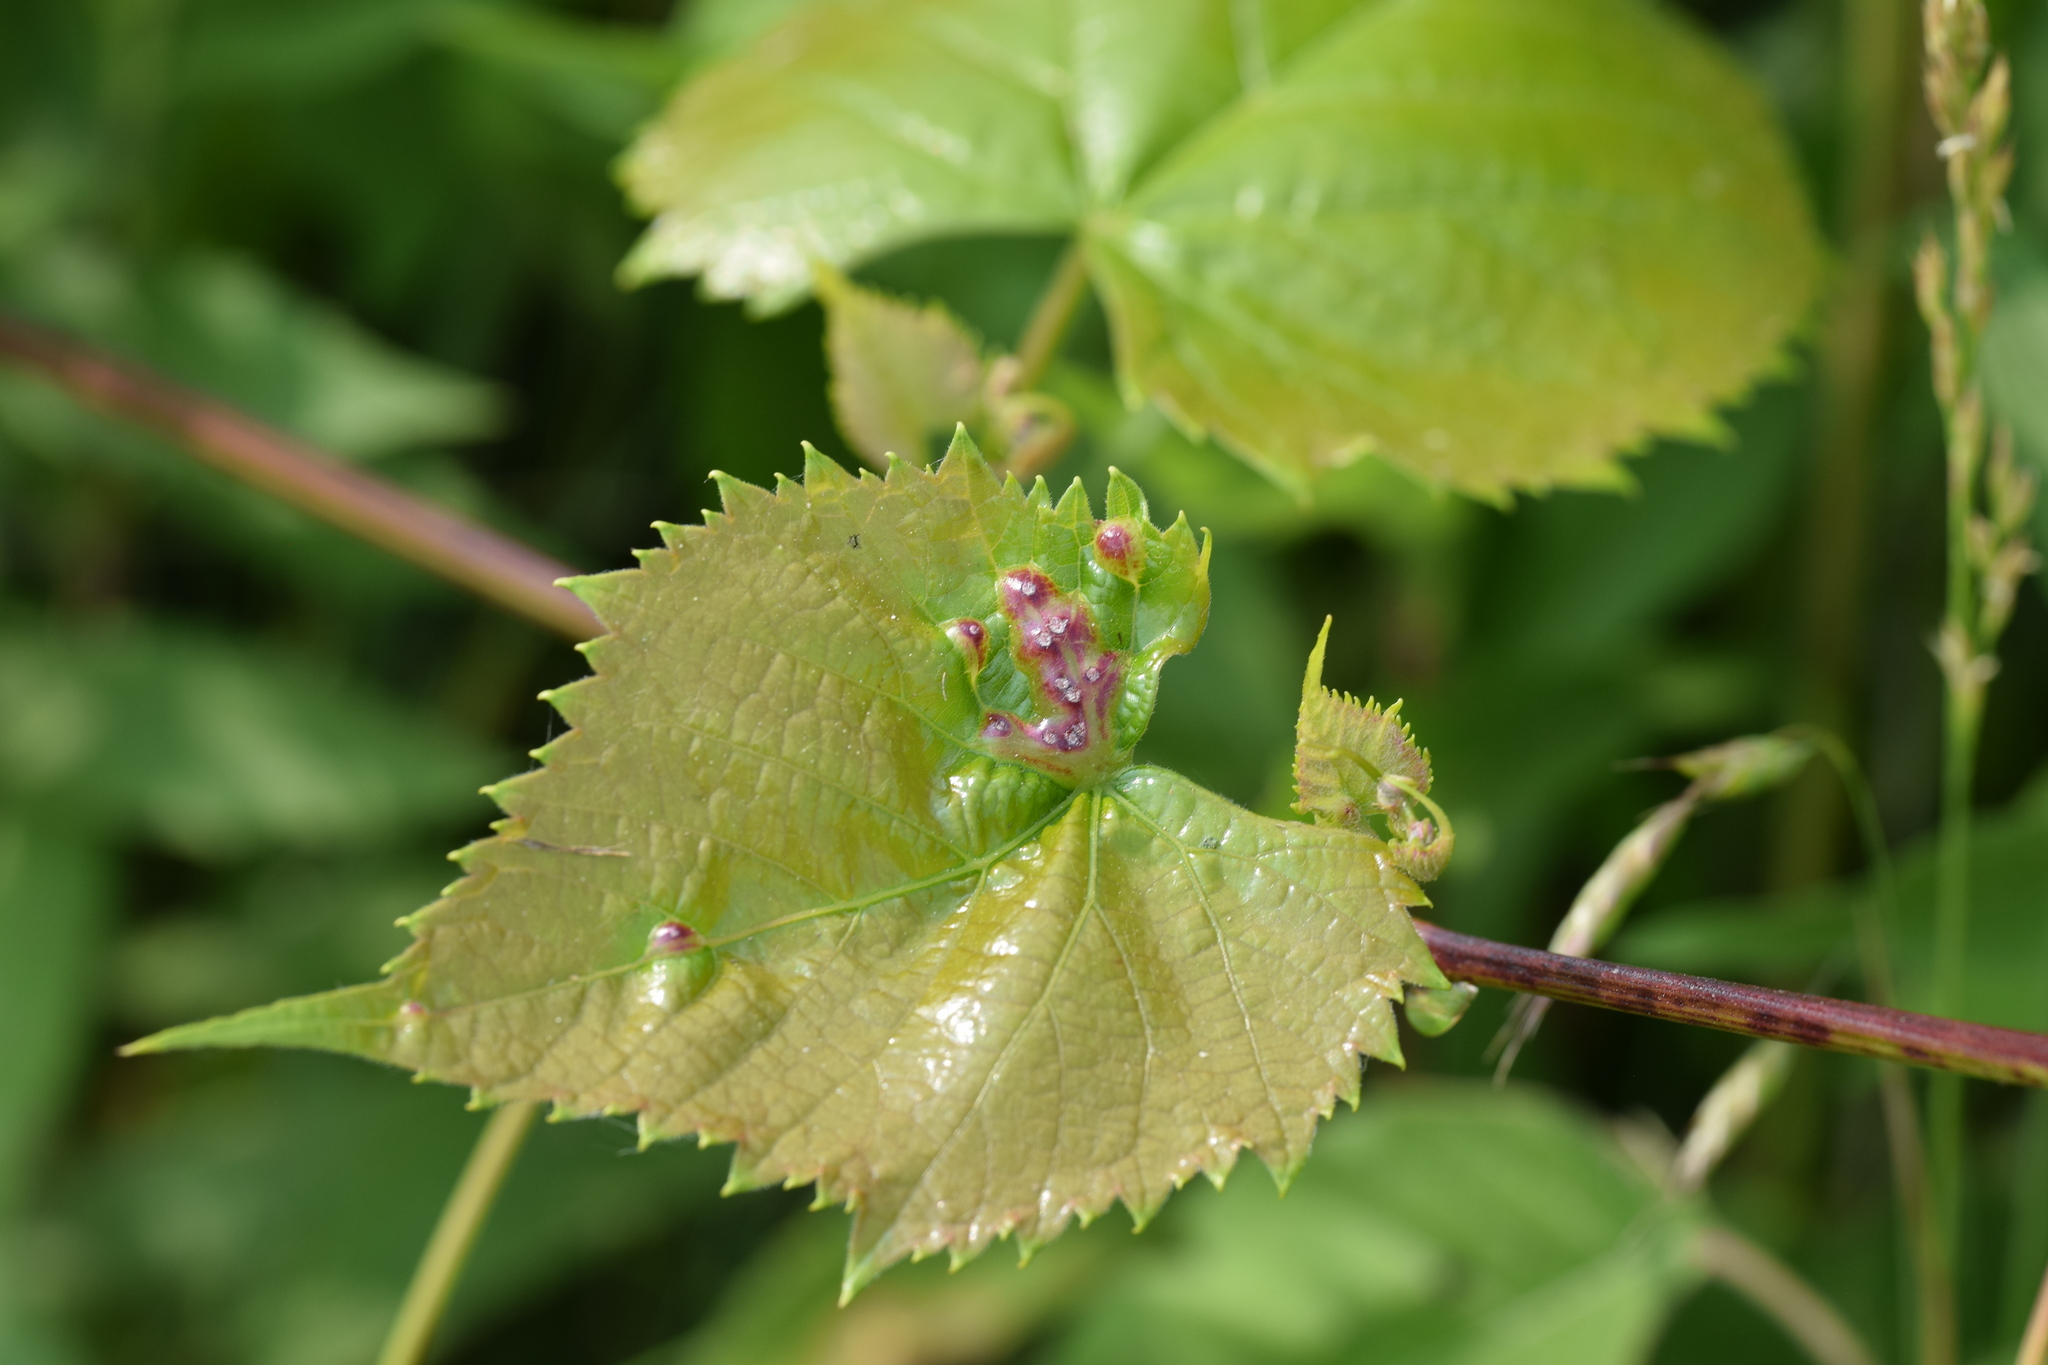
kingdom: Animalia
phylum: Arthropoda
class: Insecta
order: Hemiptera
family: Phylloxeridae
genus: Daktulosphaira
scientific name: Daktulosphaira vitifoliae
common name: Grape phylloxera
